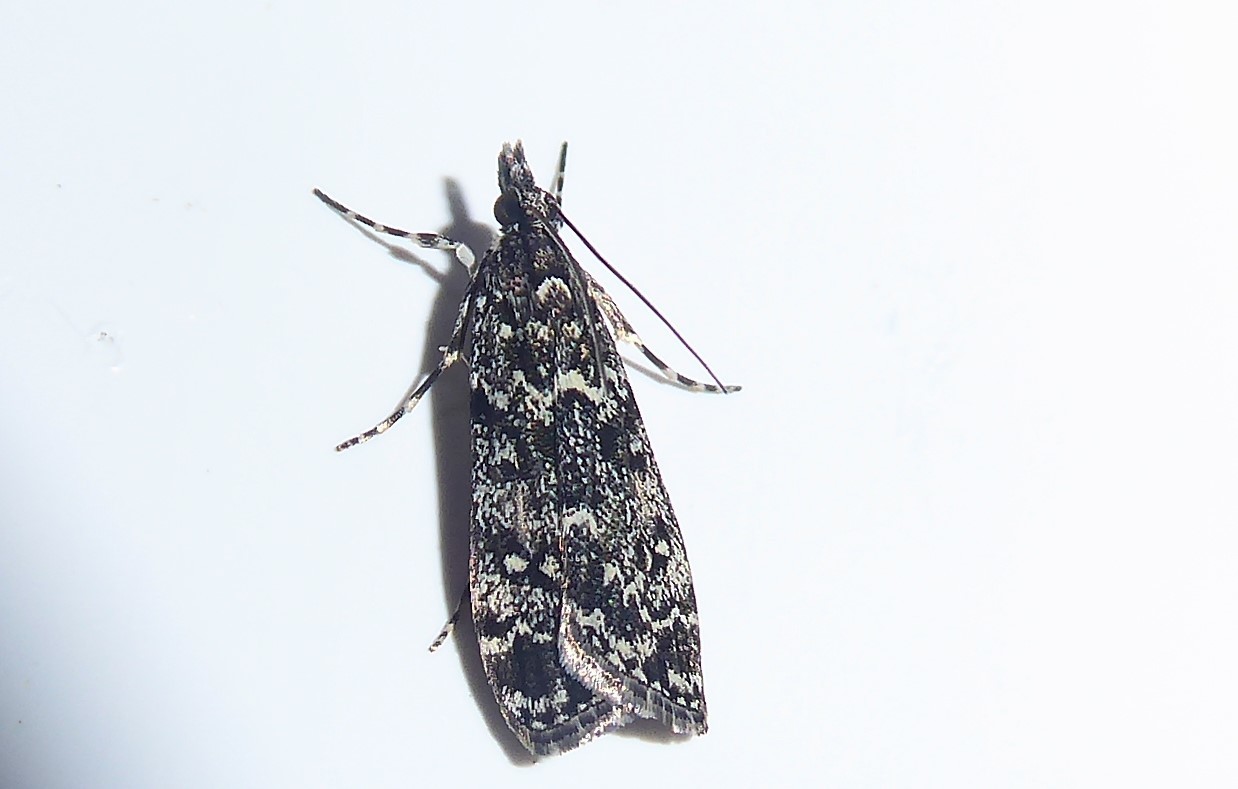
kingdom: Animalia
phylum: Arthropoda
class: Insecta
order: Lepidoptera
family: Crambidae
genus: Eudonia
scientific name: Eudonia philerga
